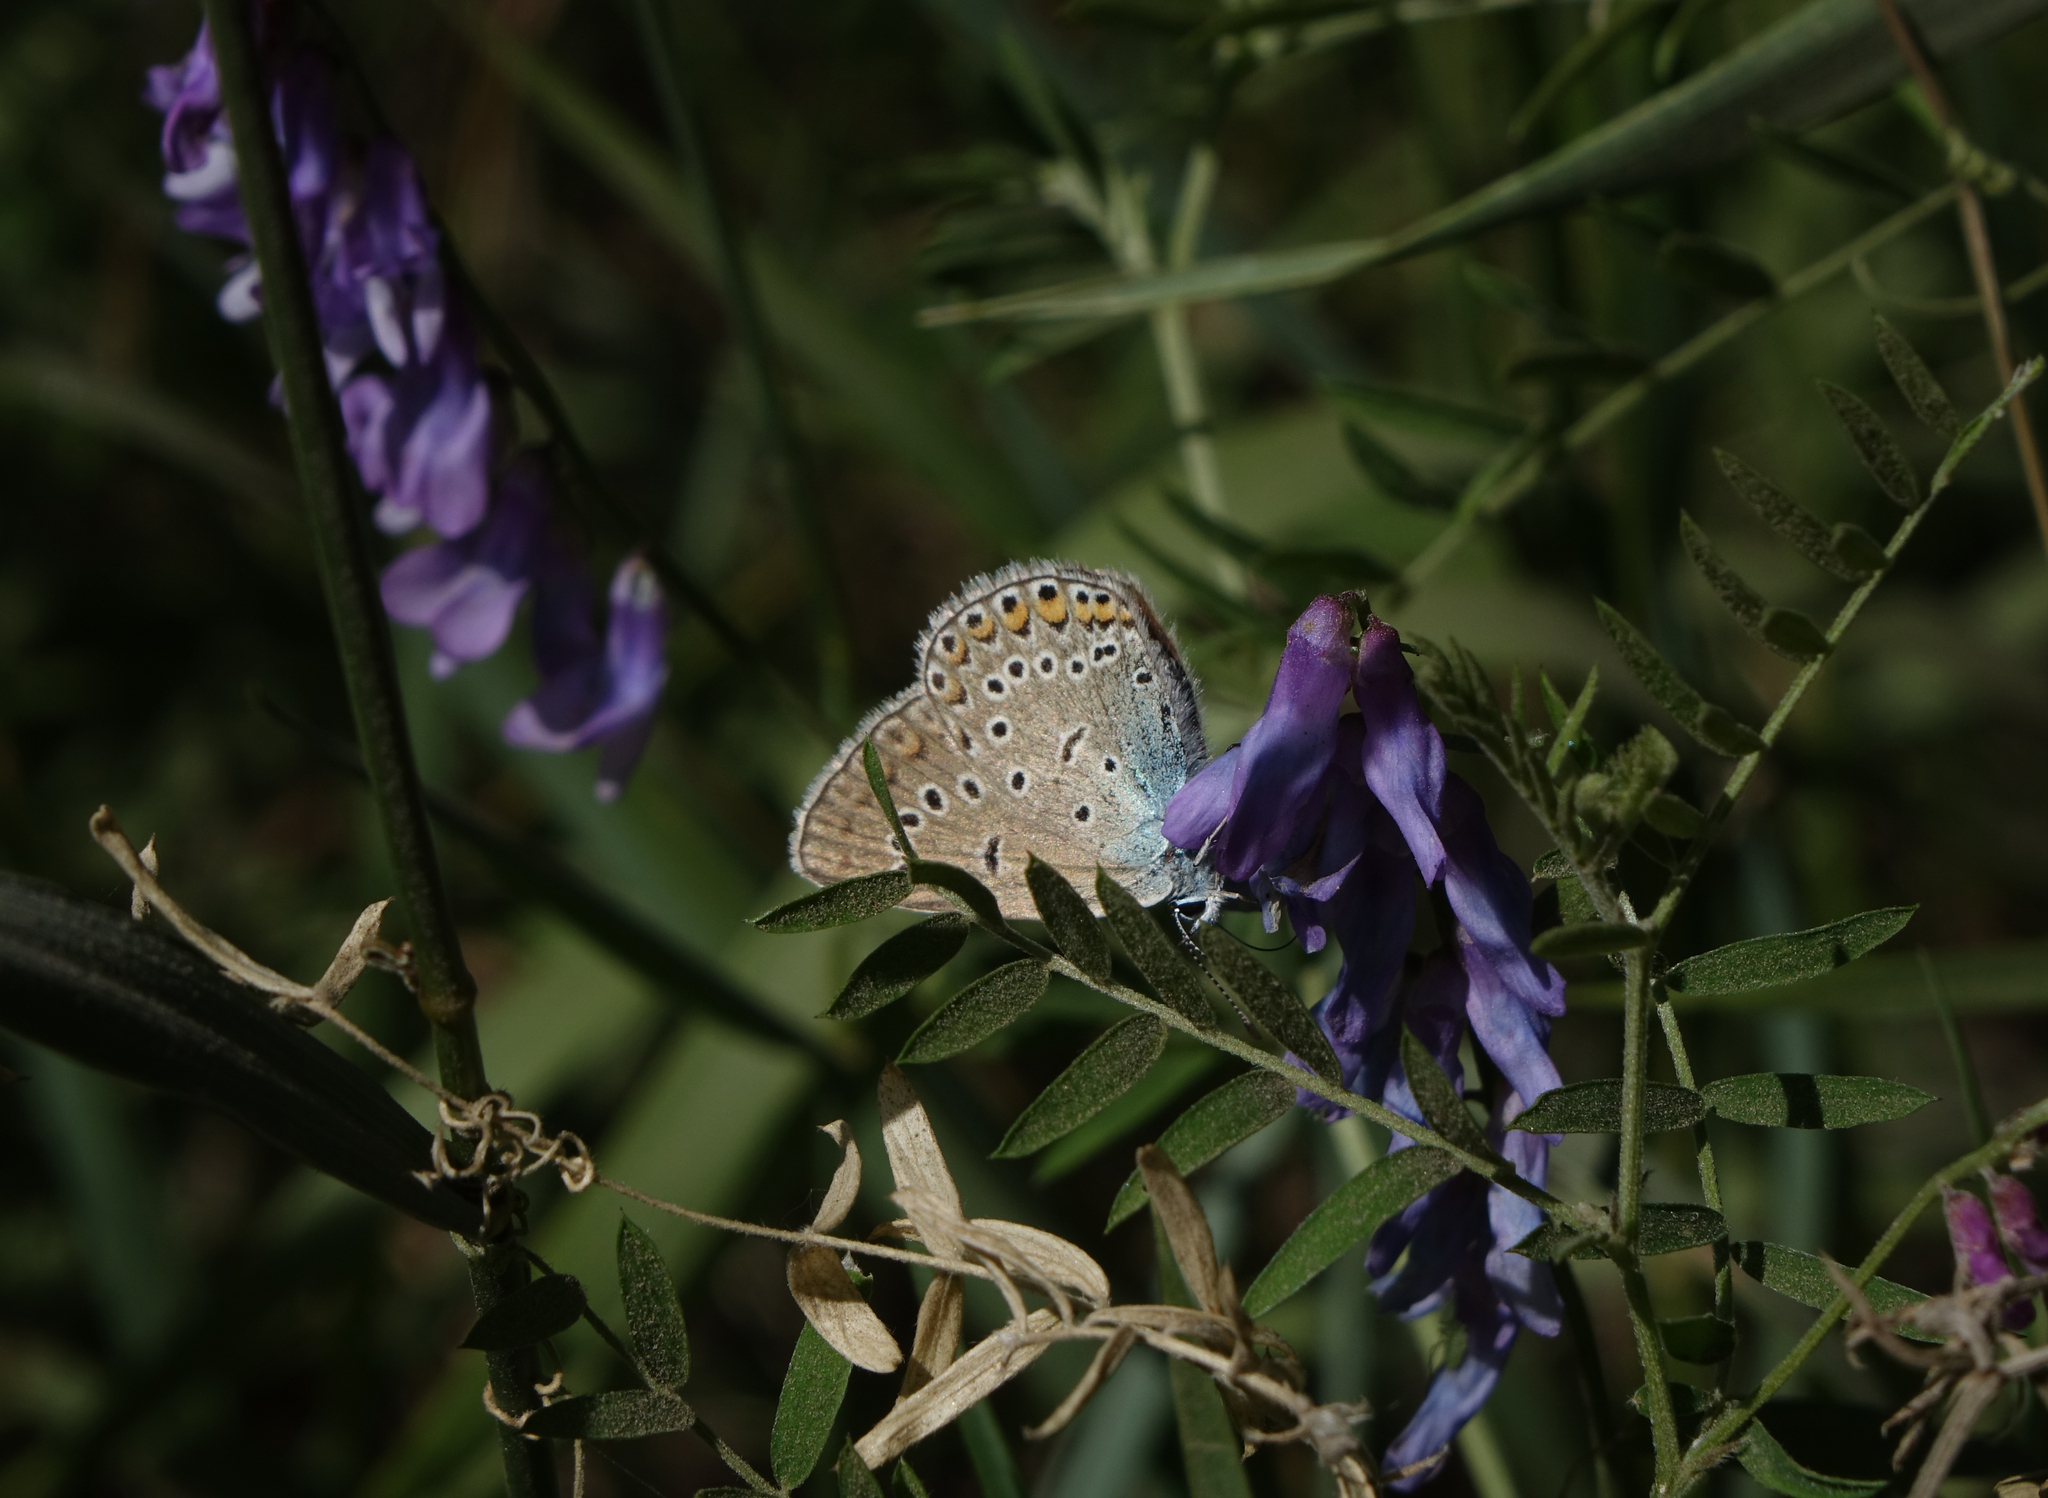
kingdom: Plantae
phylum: Tracheophyta
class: Magnoliopsida
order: Fabales
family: Fabaceae
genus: Vicia
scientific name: Vicia cracca
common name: Bird vetch
